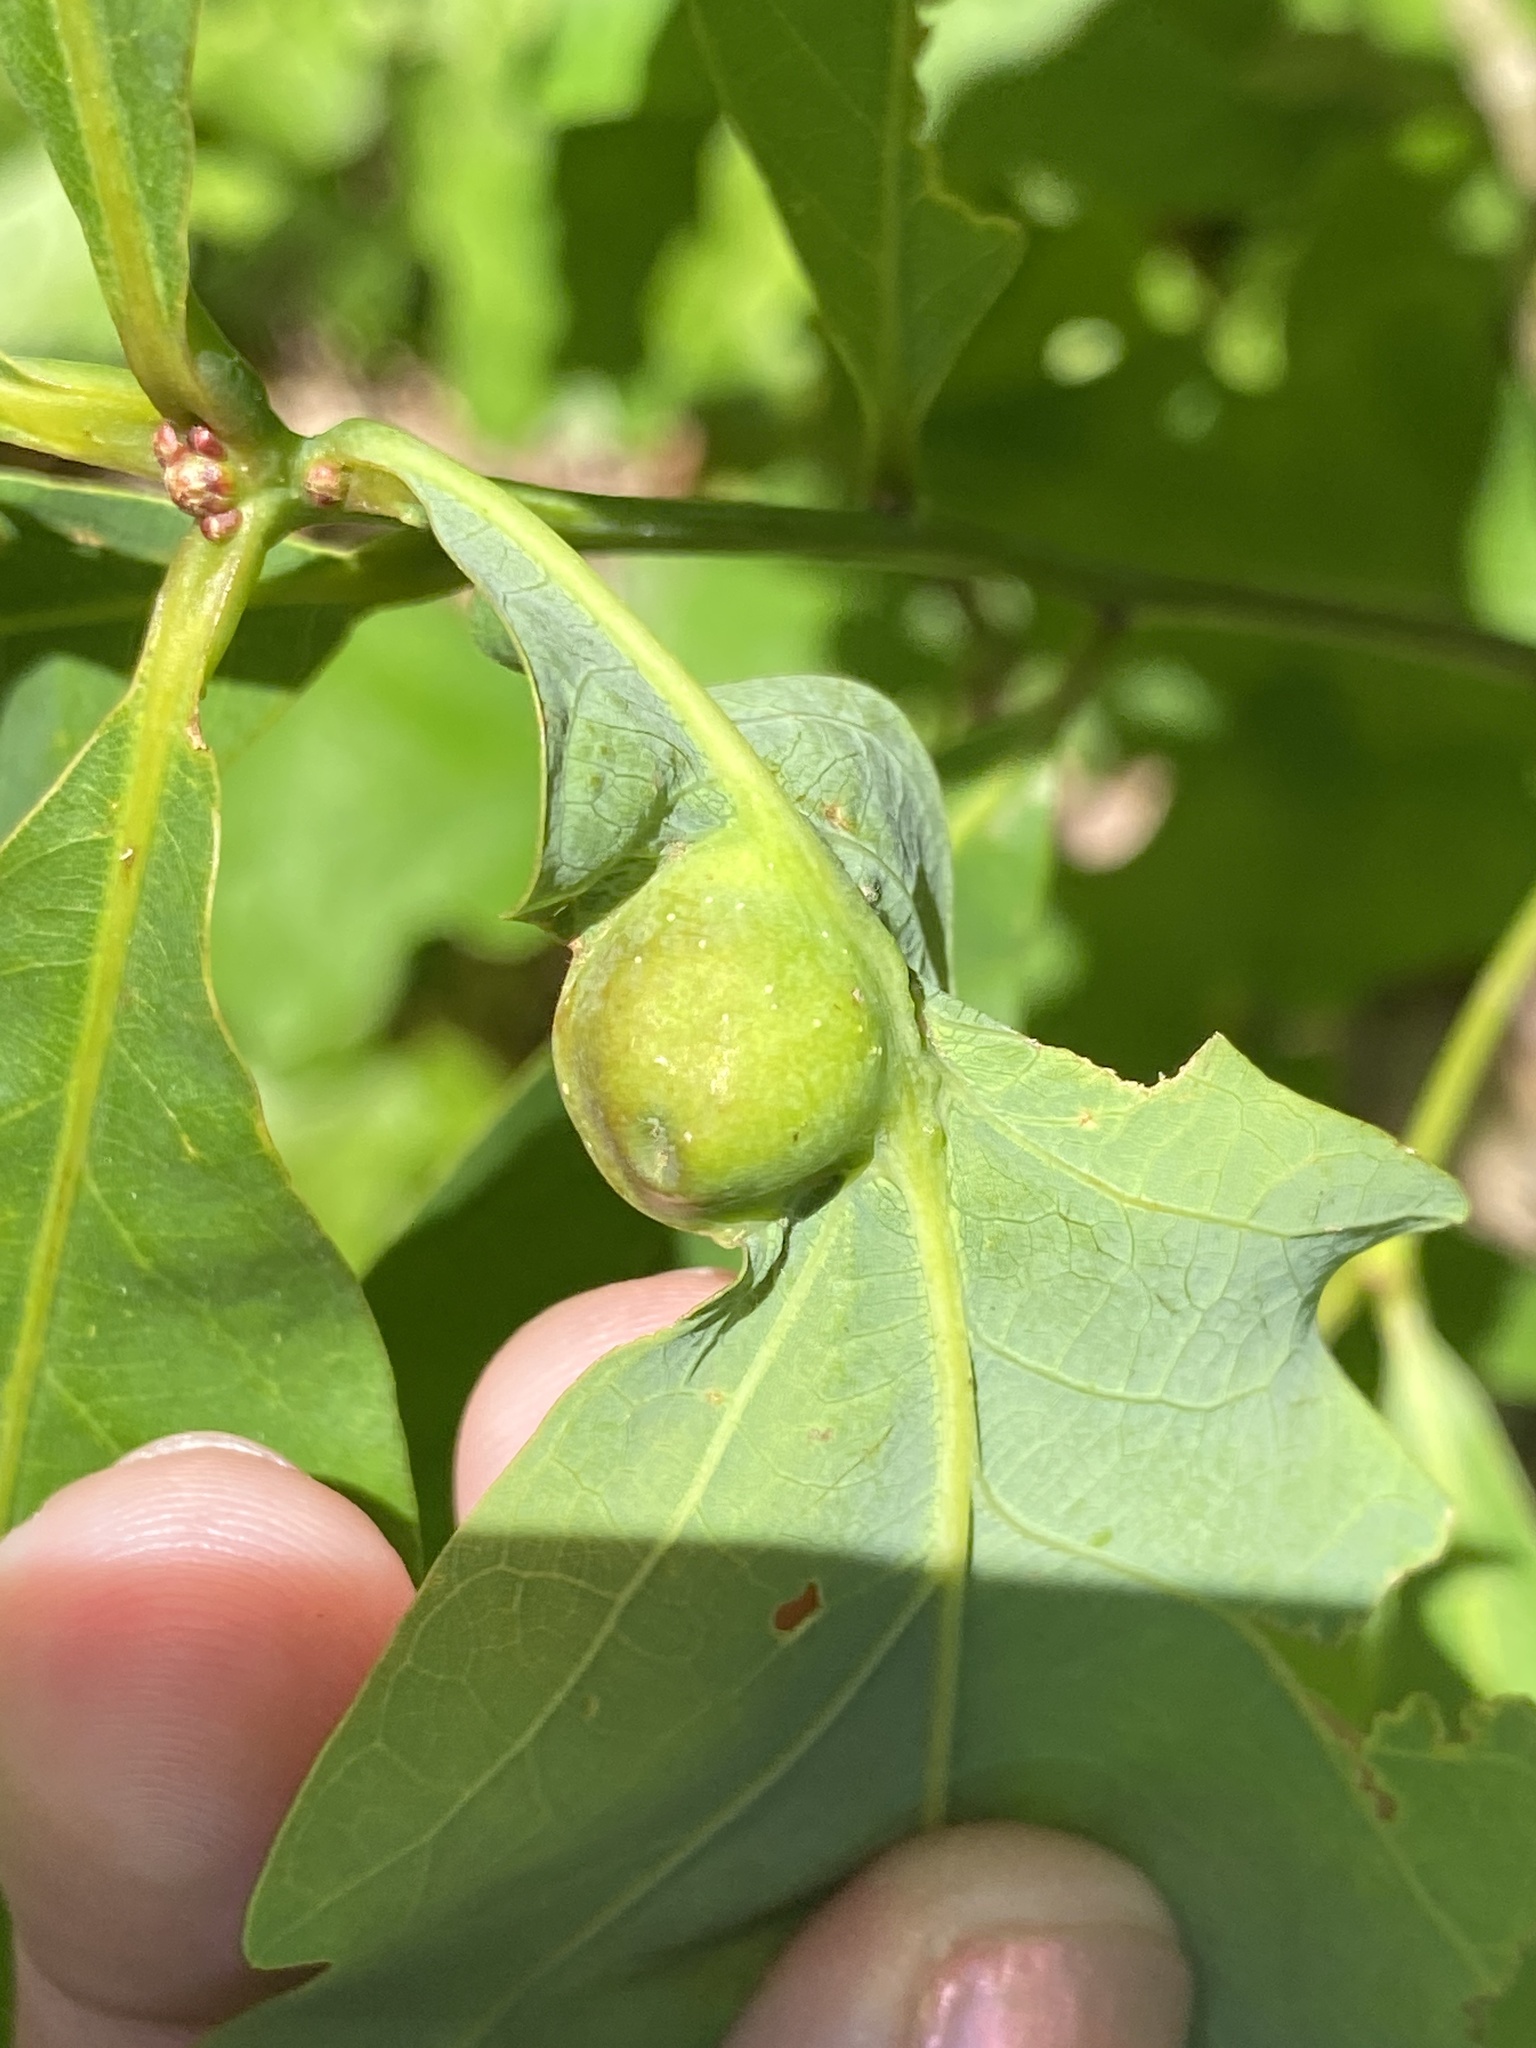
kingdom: Animalia
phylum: Arthropoda
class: Insecta
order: Hymenoptera
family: Cynipidae
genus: Andricus
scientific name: Andricus
